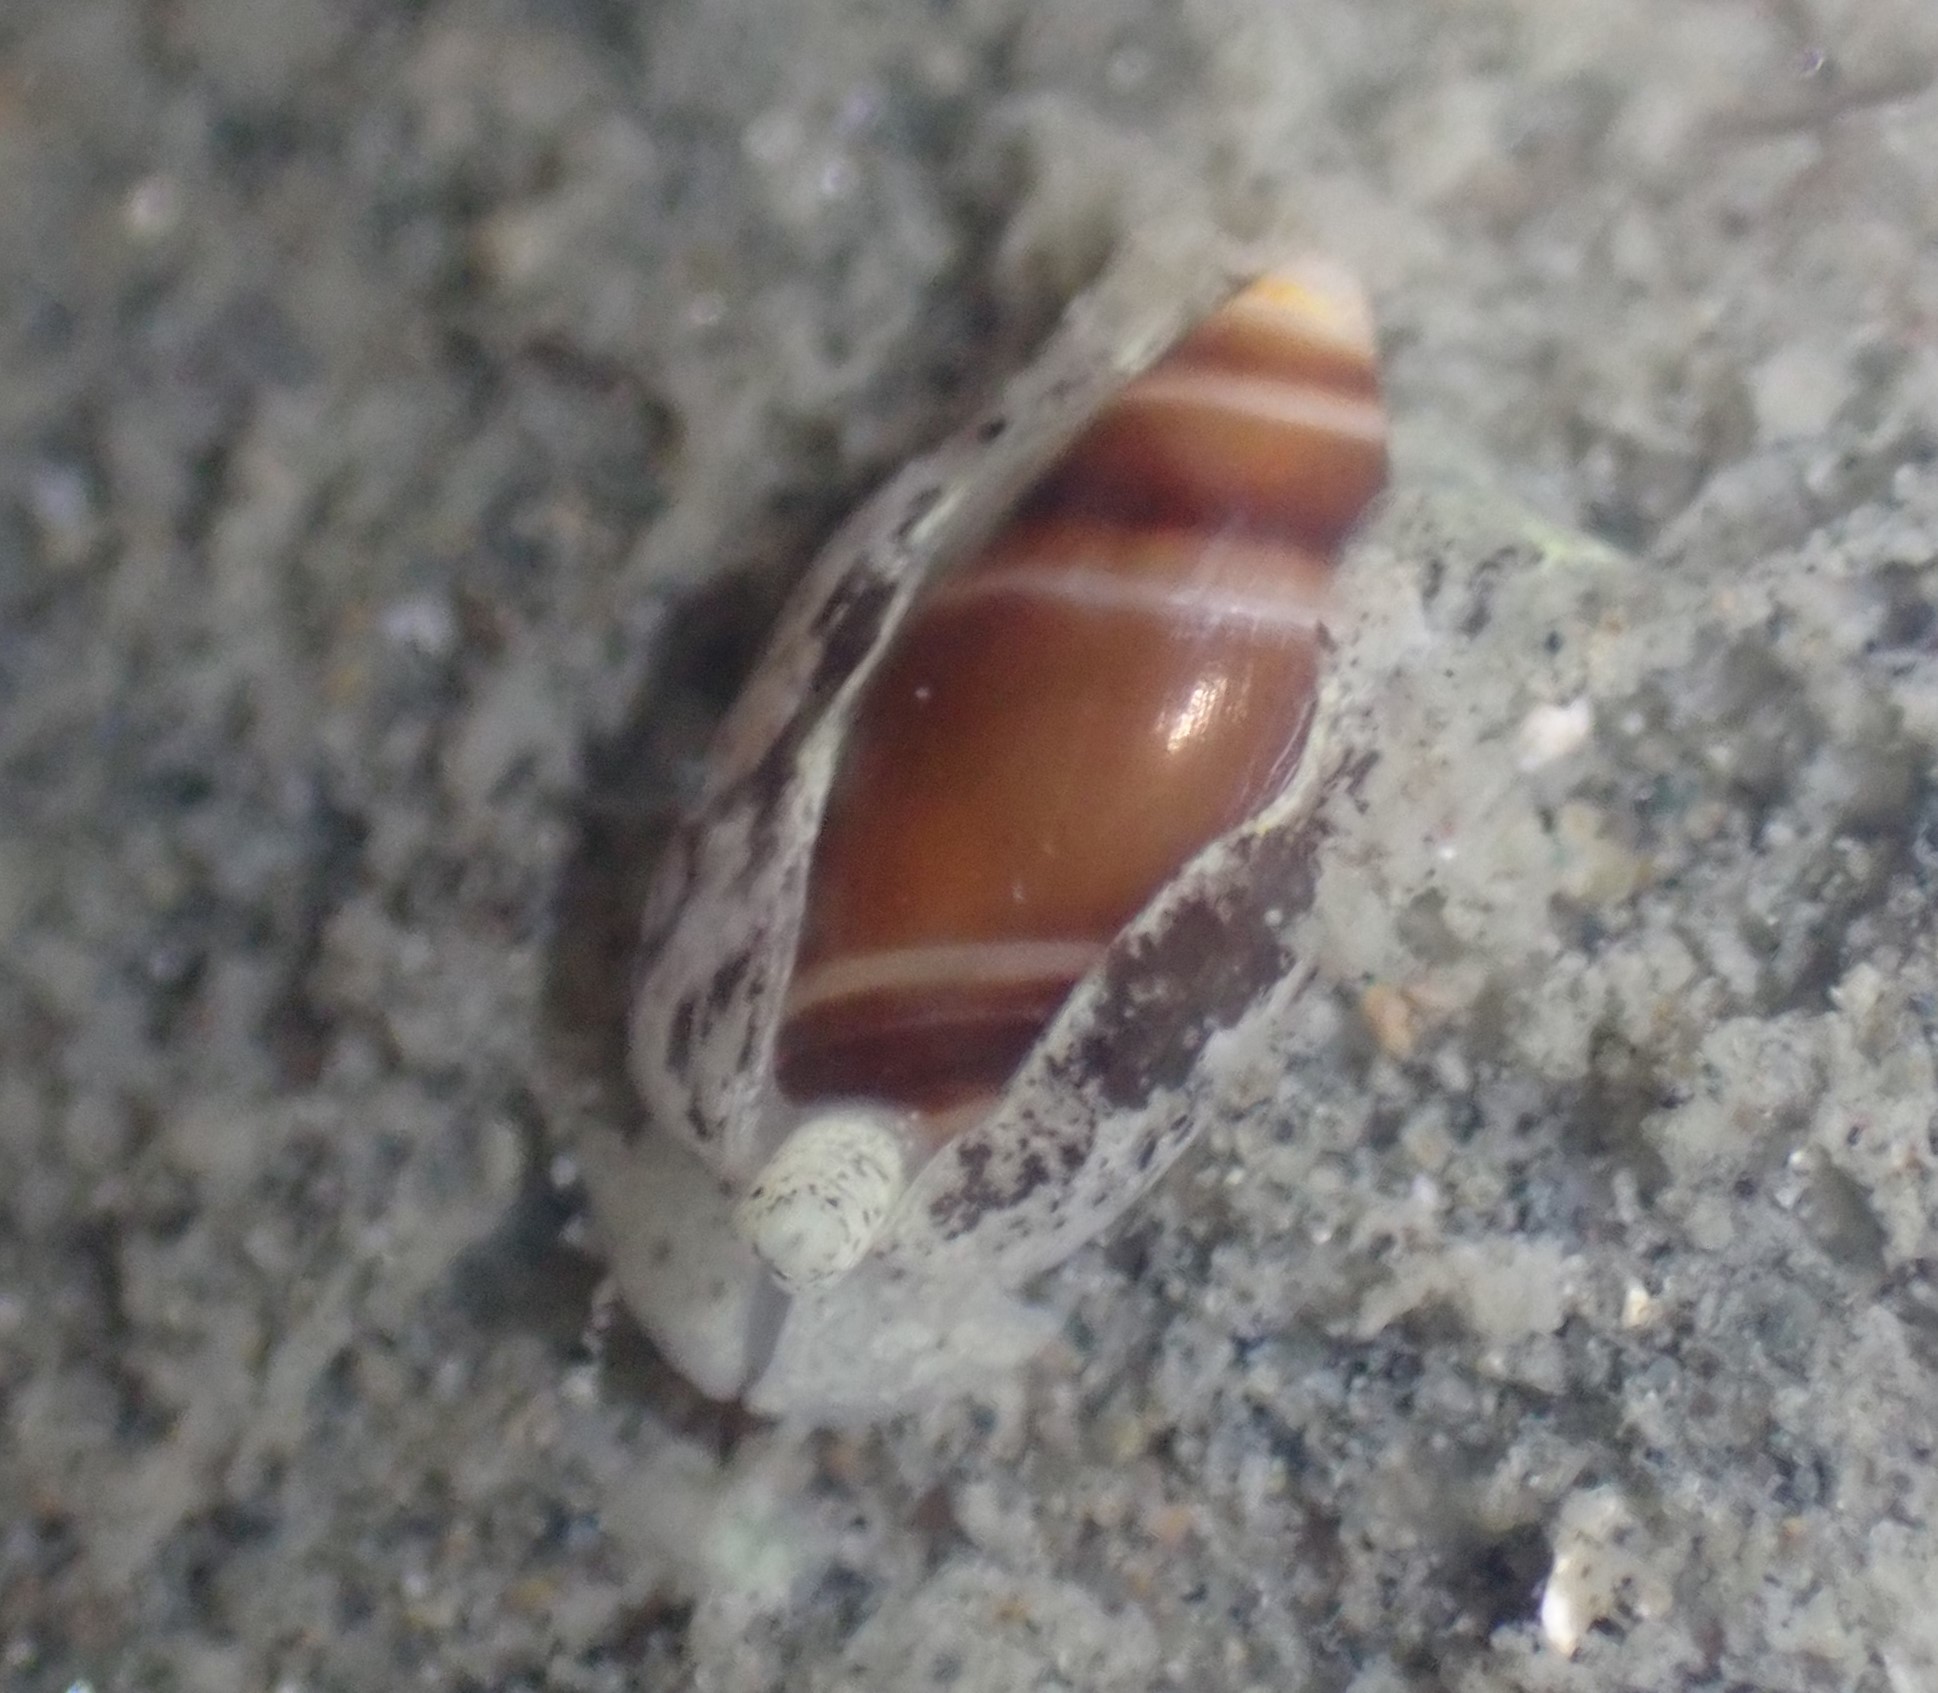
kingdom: Animalia
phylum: Mollusca
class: Gastropoda
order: Neogastropoda
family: Ancillariidae
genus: Amalda
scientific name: Amalda novaezelandiae
